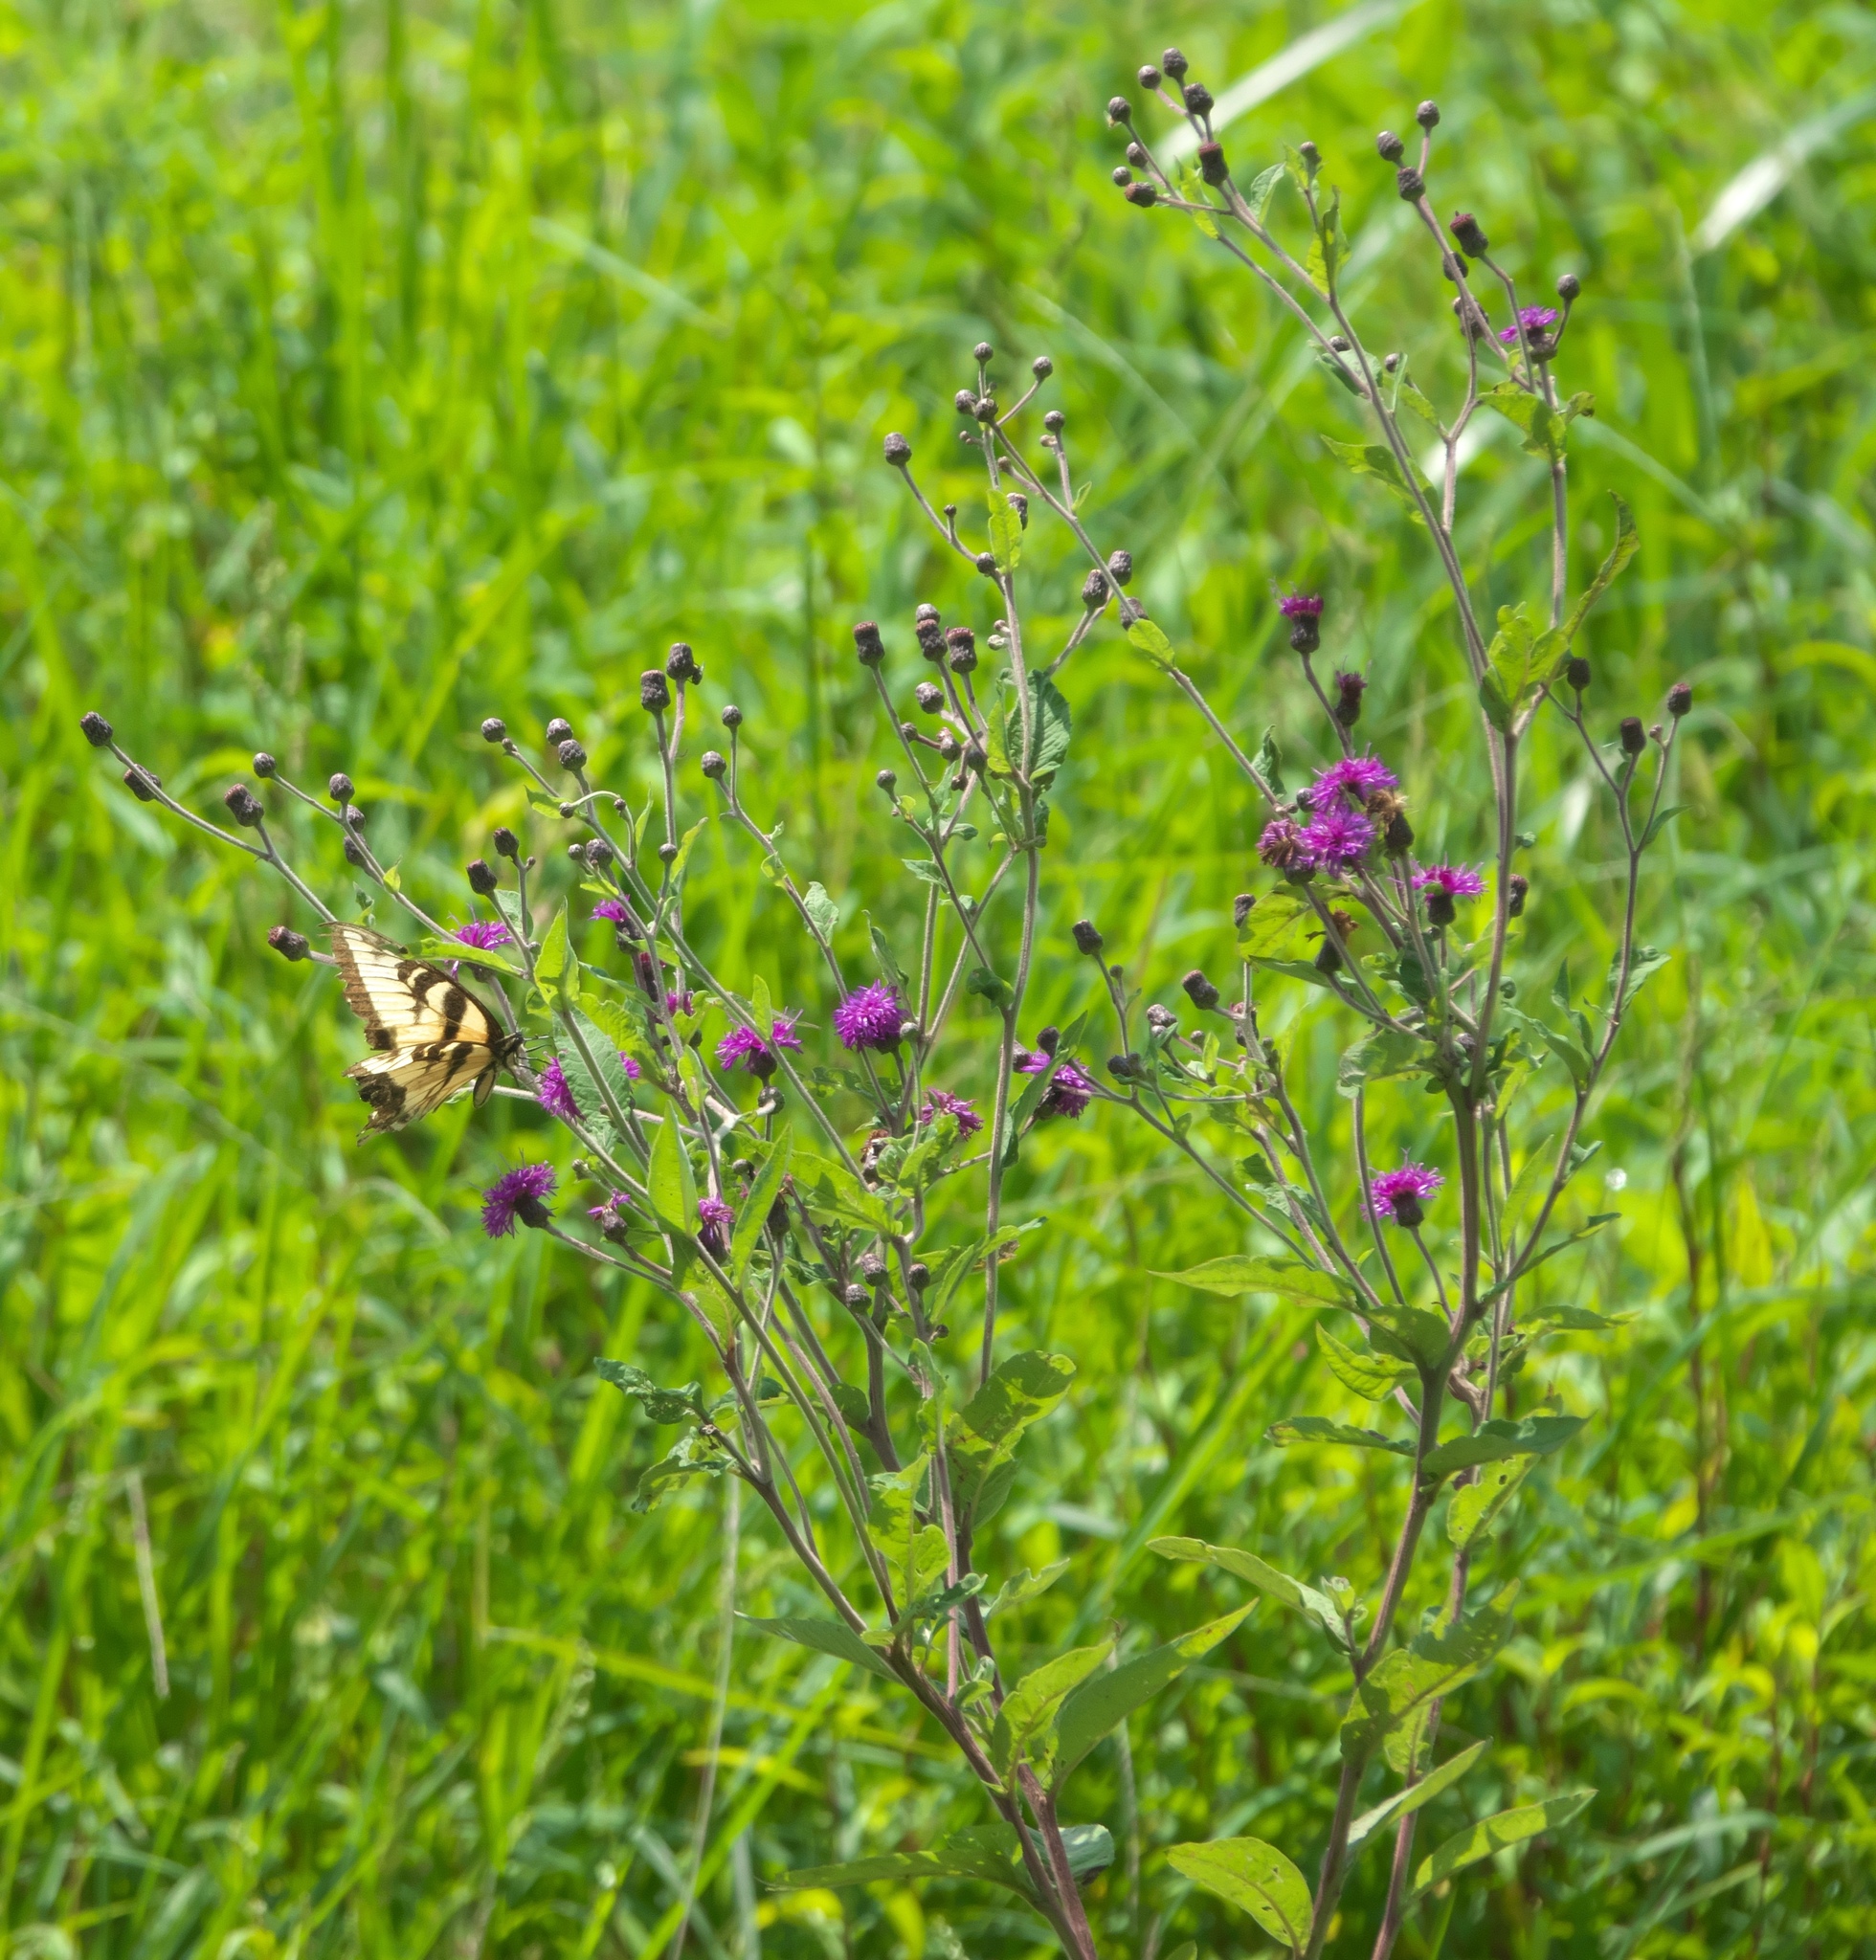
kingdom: Plantae
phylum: Tracheophyta
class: Magnoliopsida
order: Asterales
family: Asteraceae
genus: Vernonia
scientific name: Vernonia missurica
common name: Missouri ironweed
